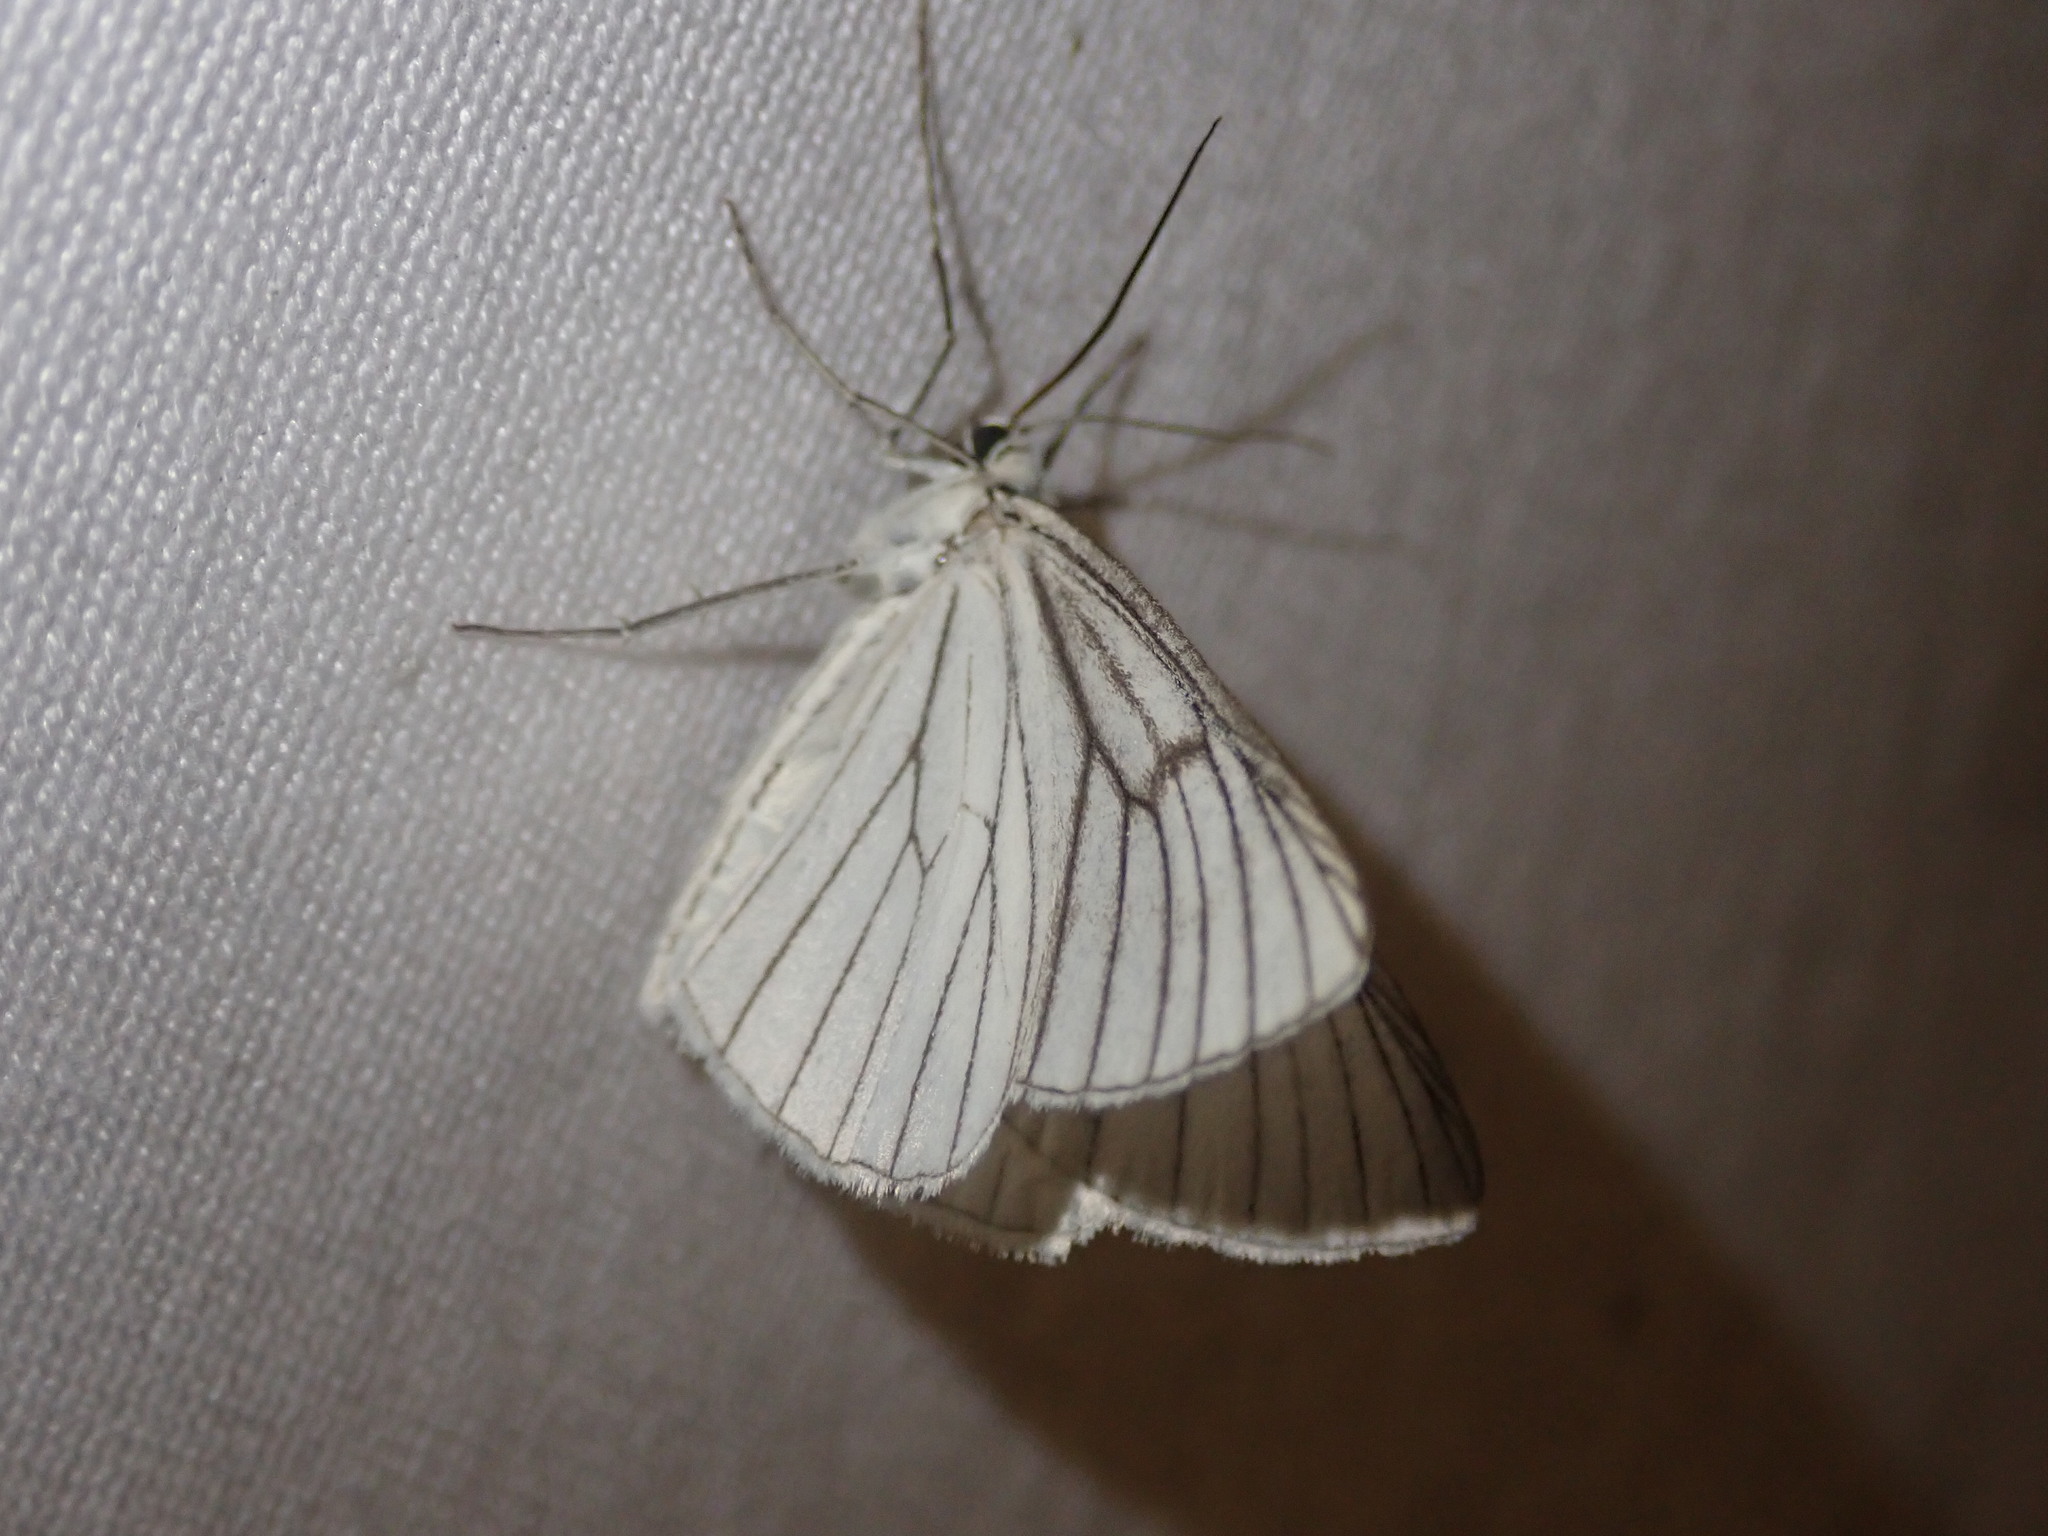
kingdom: Animalia
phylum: Arthropoda
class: Insecta
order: Lepidoptera
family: Geometridae
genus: Siona
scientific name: Siona lineata
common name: Black-veined moth
